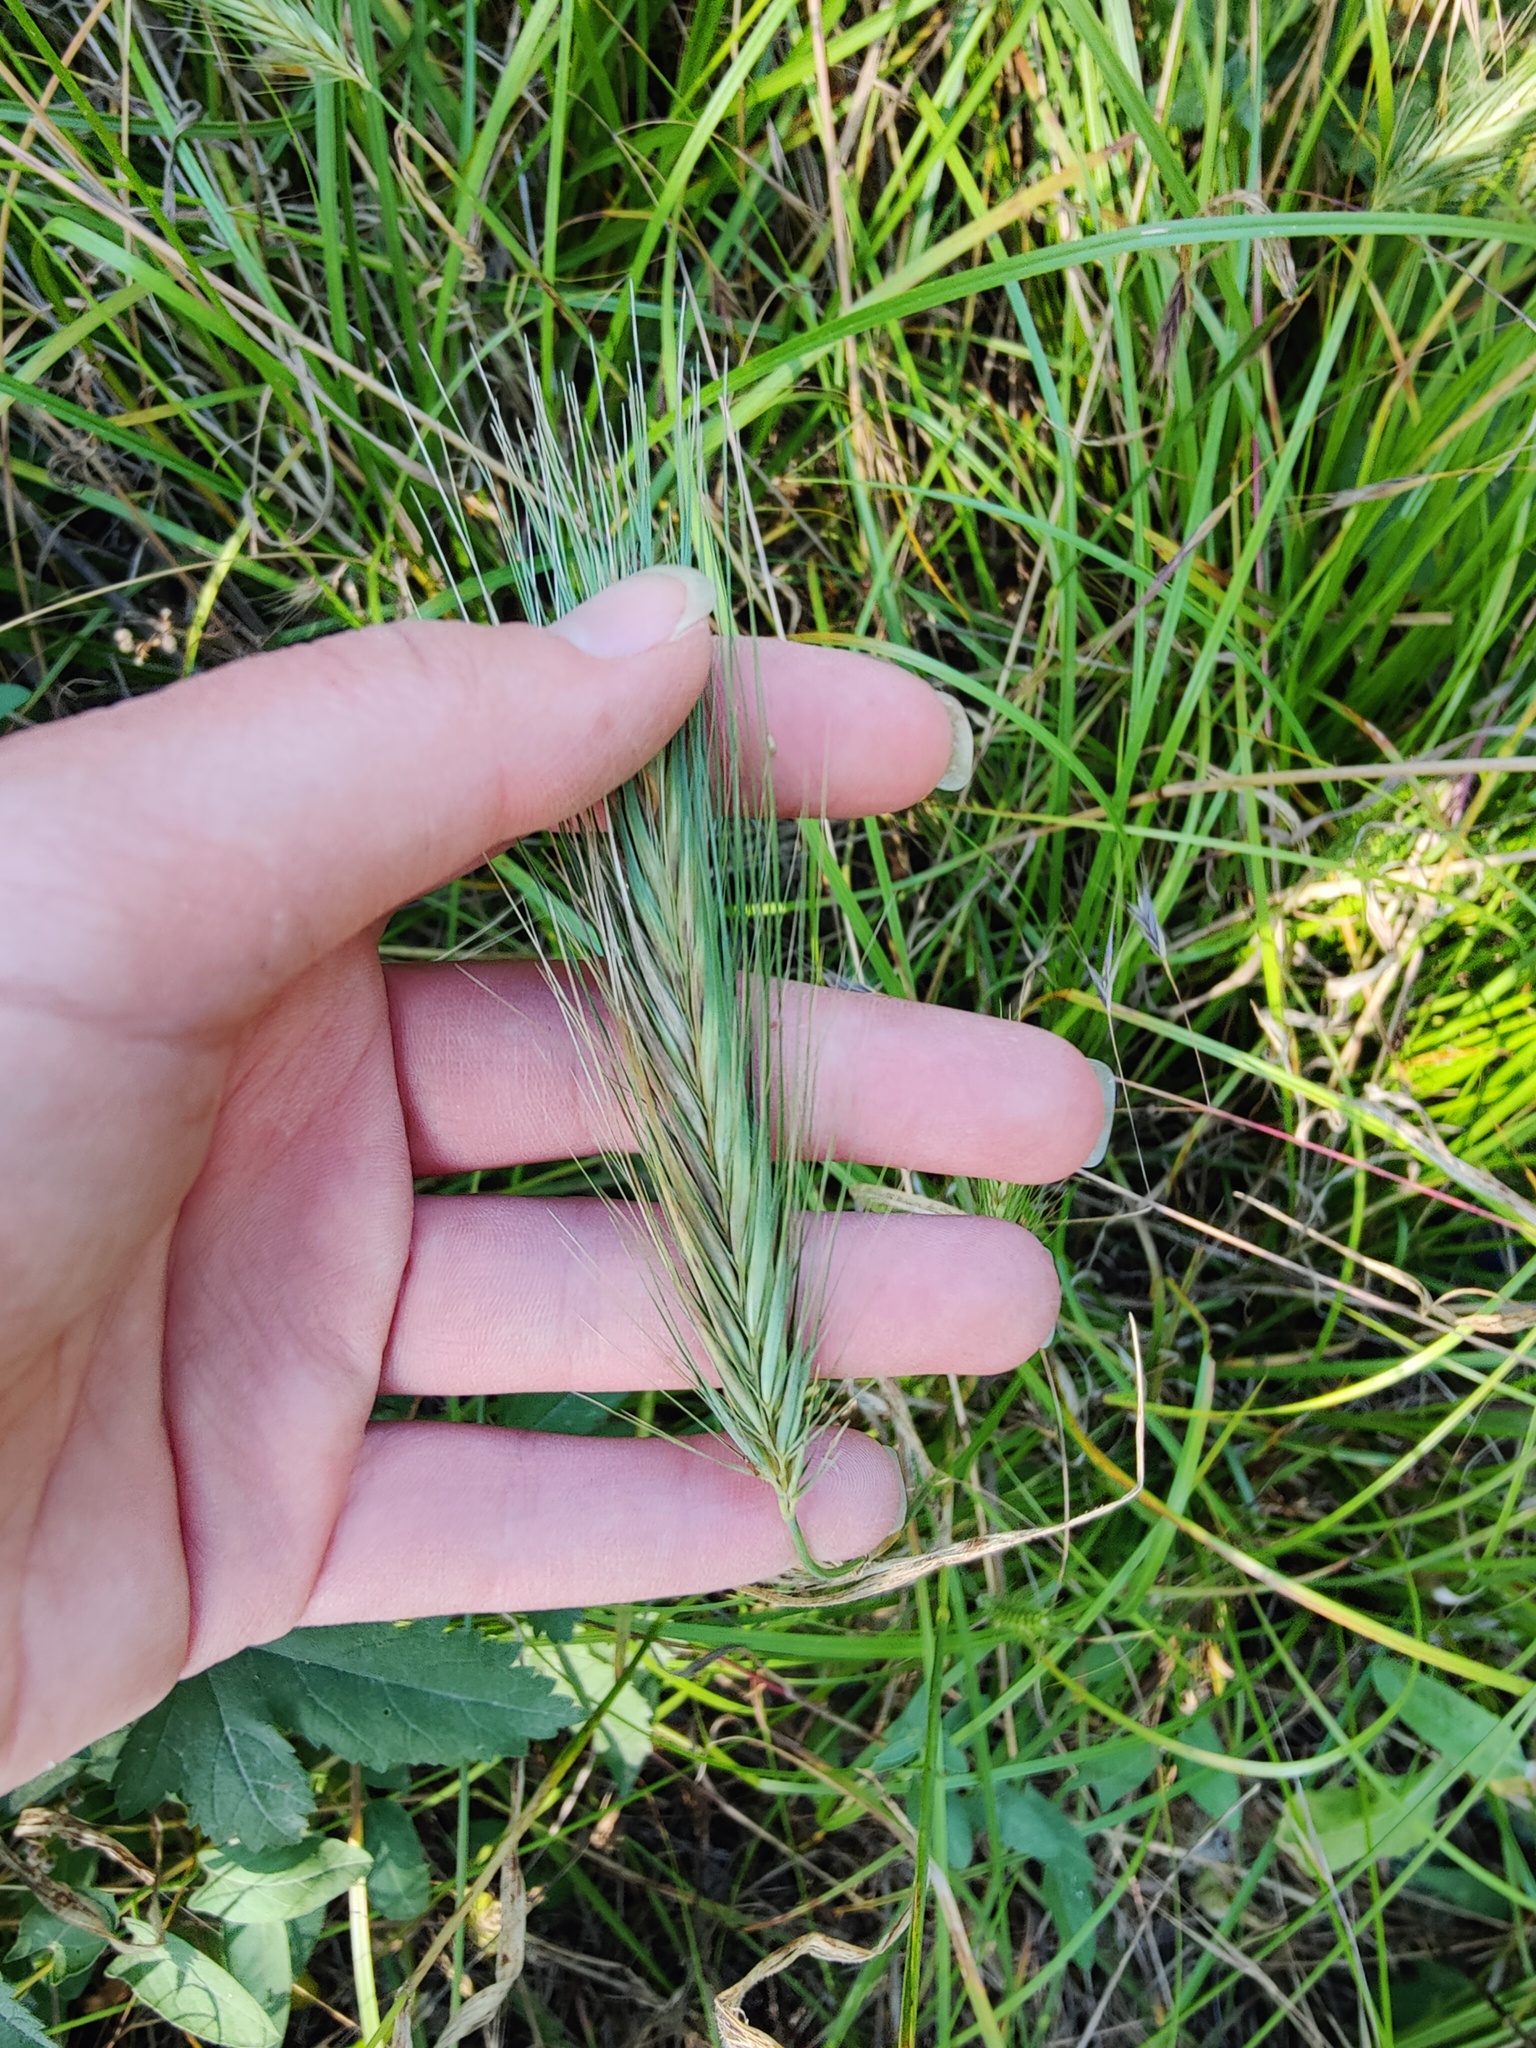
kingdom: Plantae
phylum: Tracheophyta
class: Liliopsida
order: Poales
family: Poaceae
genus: Hordeum
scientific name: Hordeum murinum
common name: Wall barley
